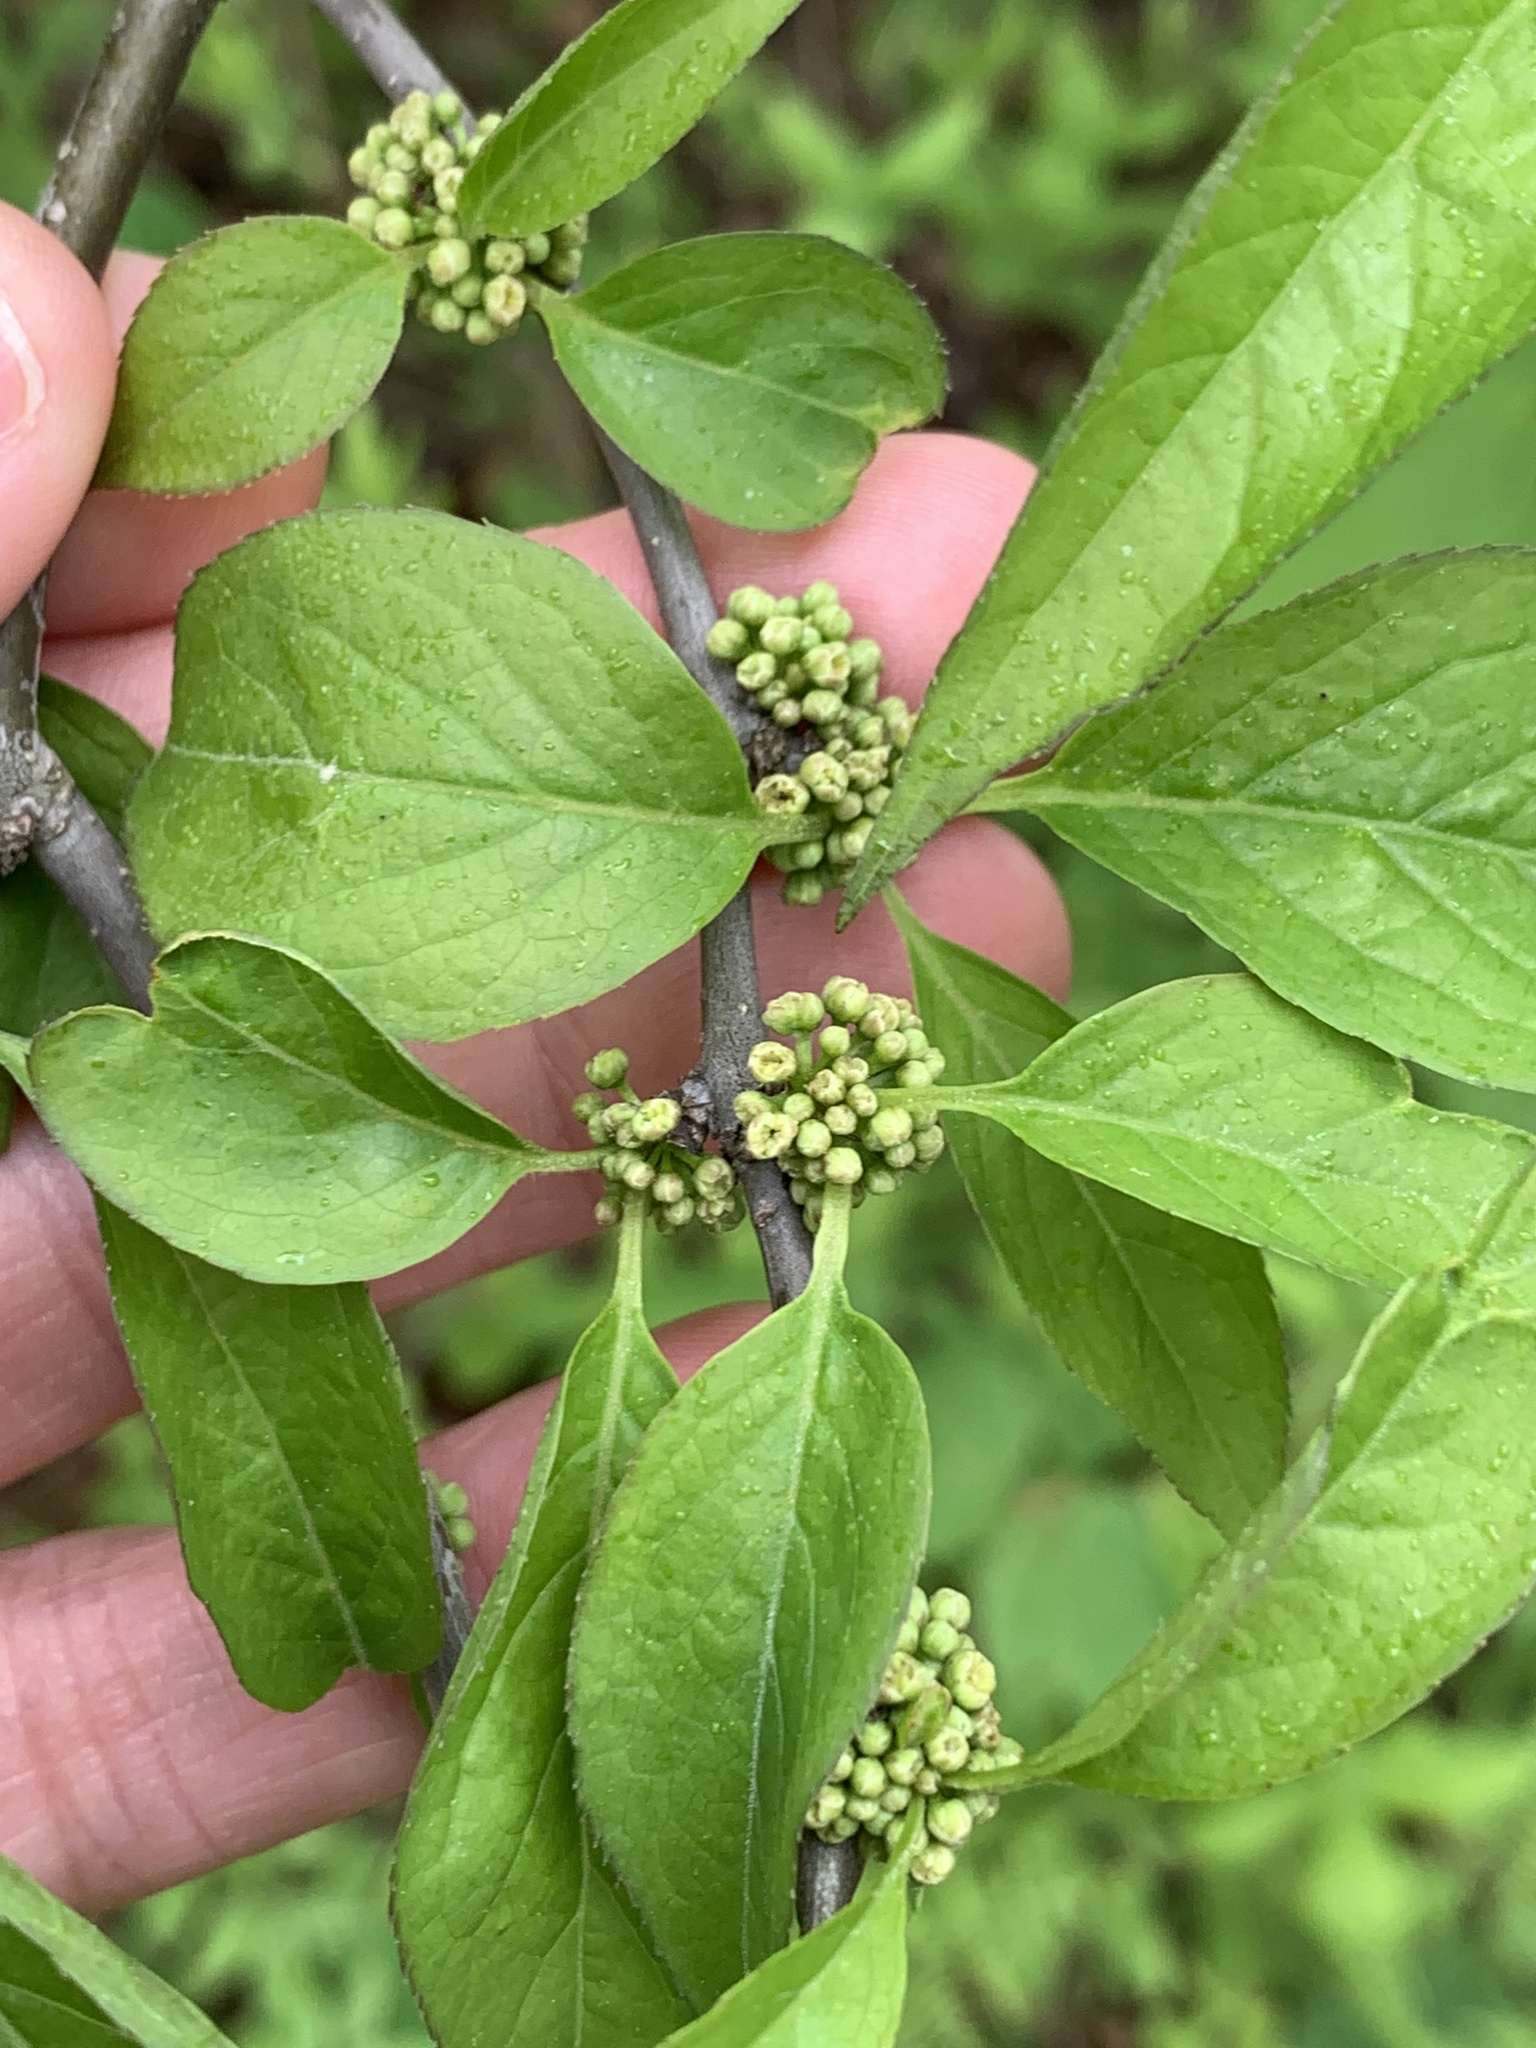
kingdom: Plantae
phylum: Tracheophyta
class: Magnoliopsida
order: Aquifoliales
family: Aquifoliaceae
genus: Ilex
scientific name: Ilex montana
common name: Mountain winterberry
